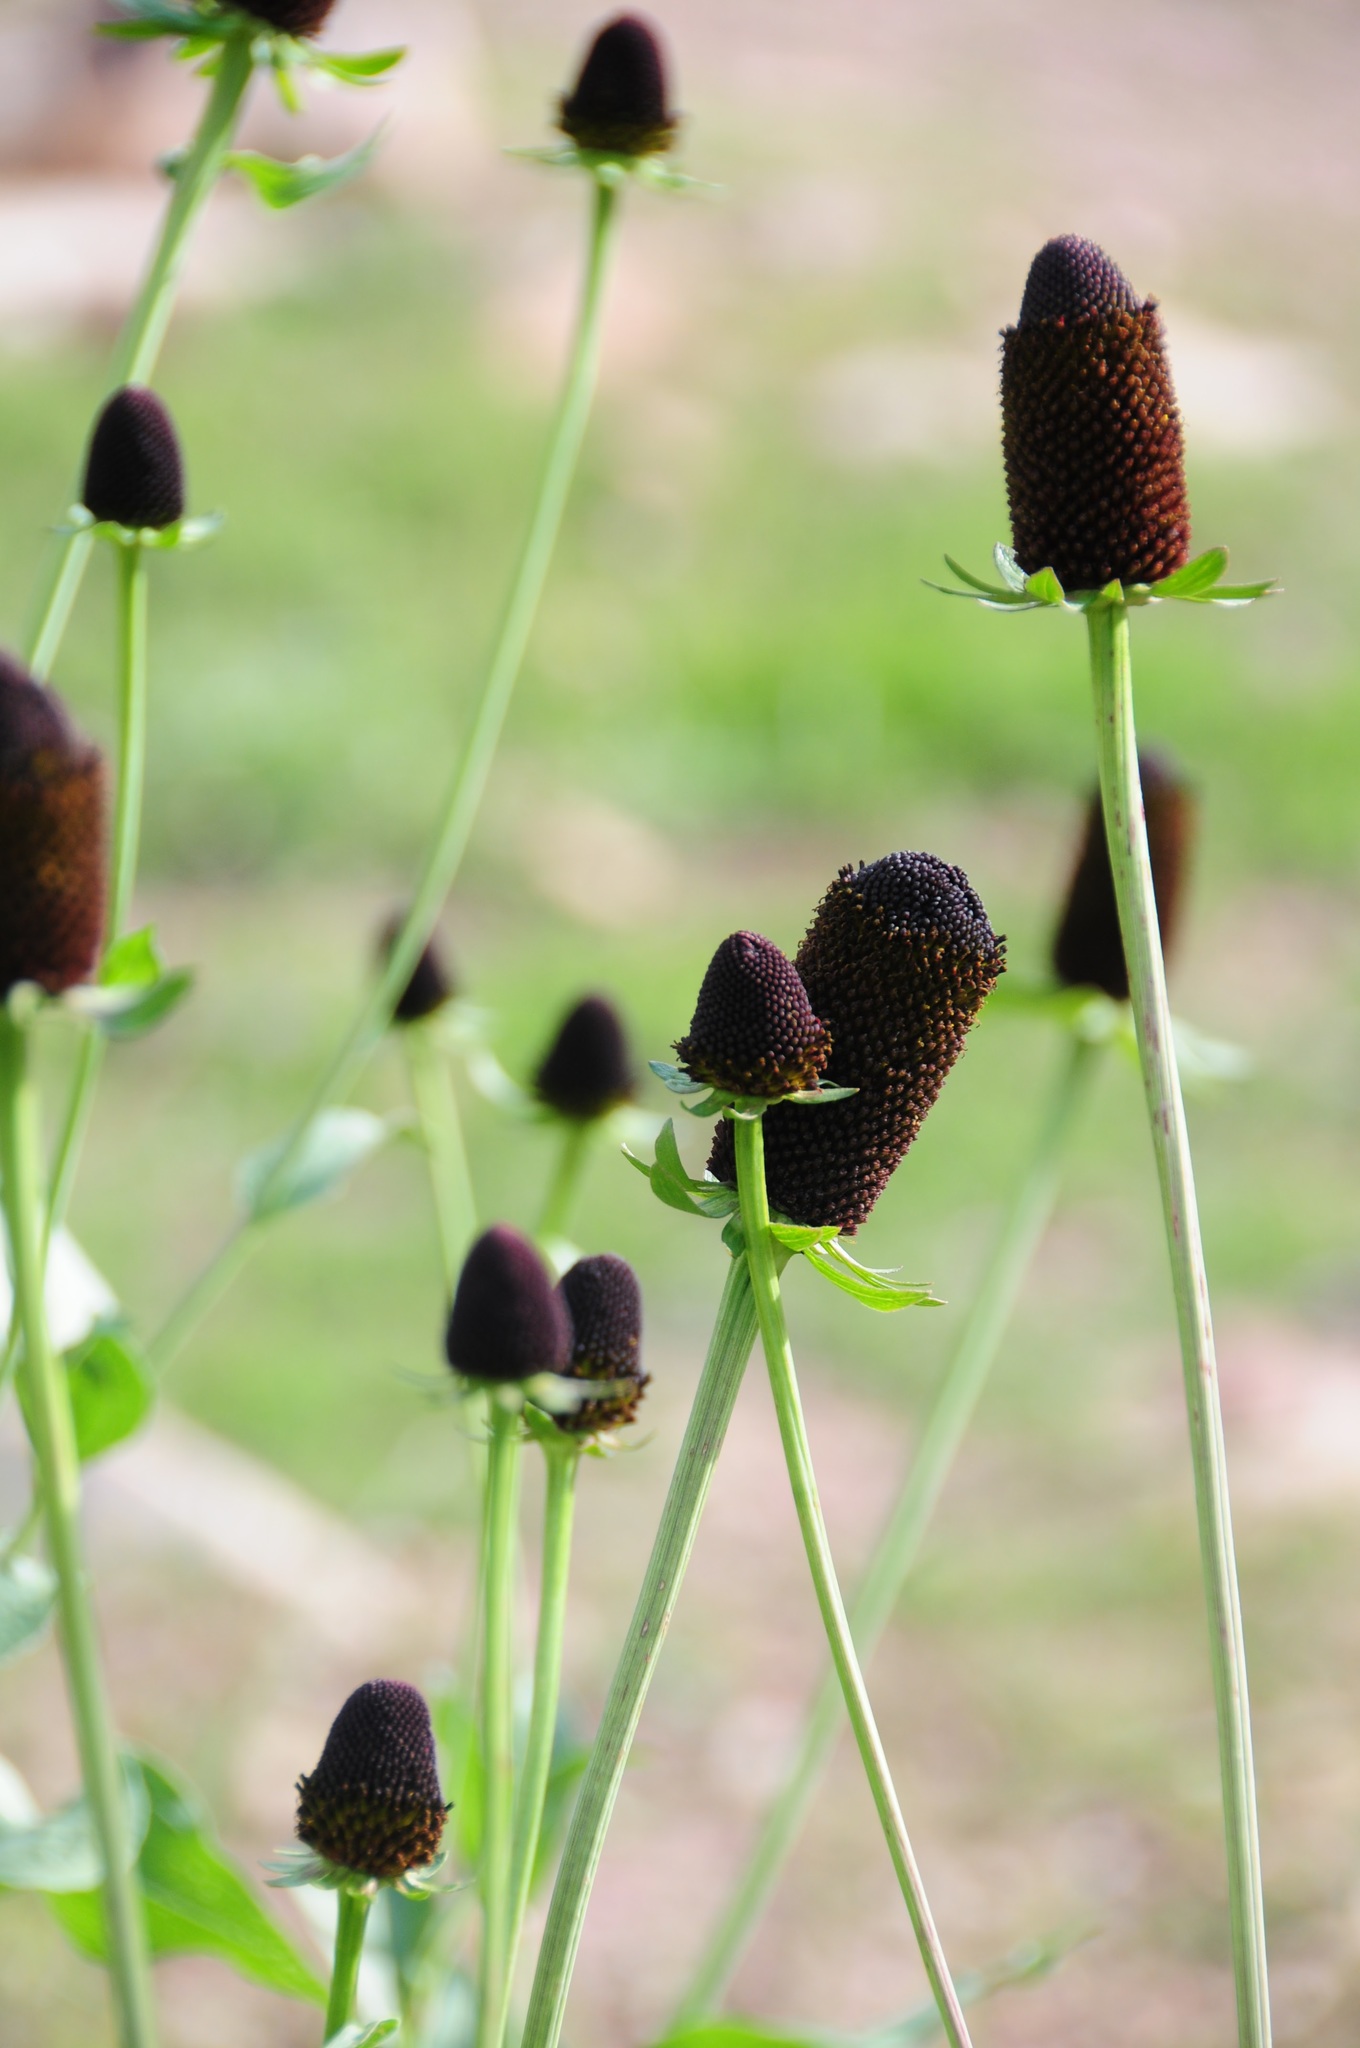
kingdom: Plantae
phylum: Tracheophyta
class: Magnoliopsida
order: Asterales
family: Asteraceae
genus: Rudbeckia
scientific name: Rudbeckia occidentalis
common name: Western coneflower
